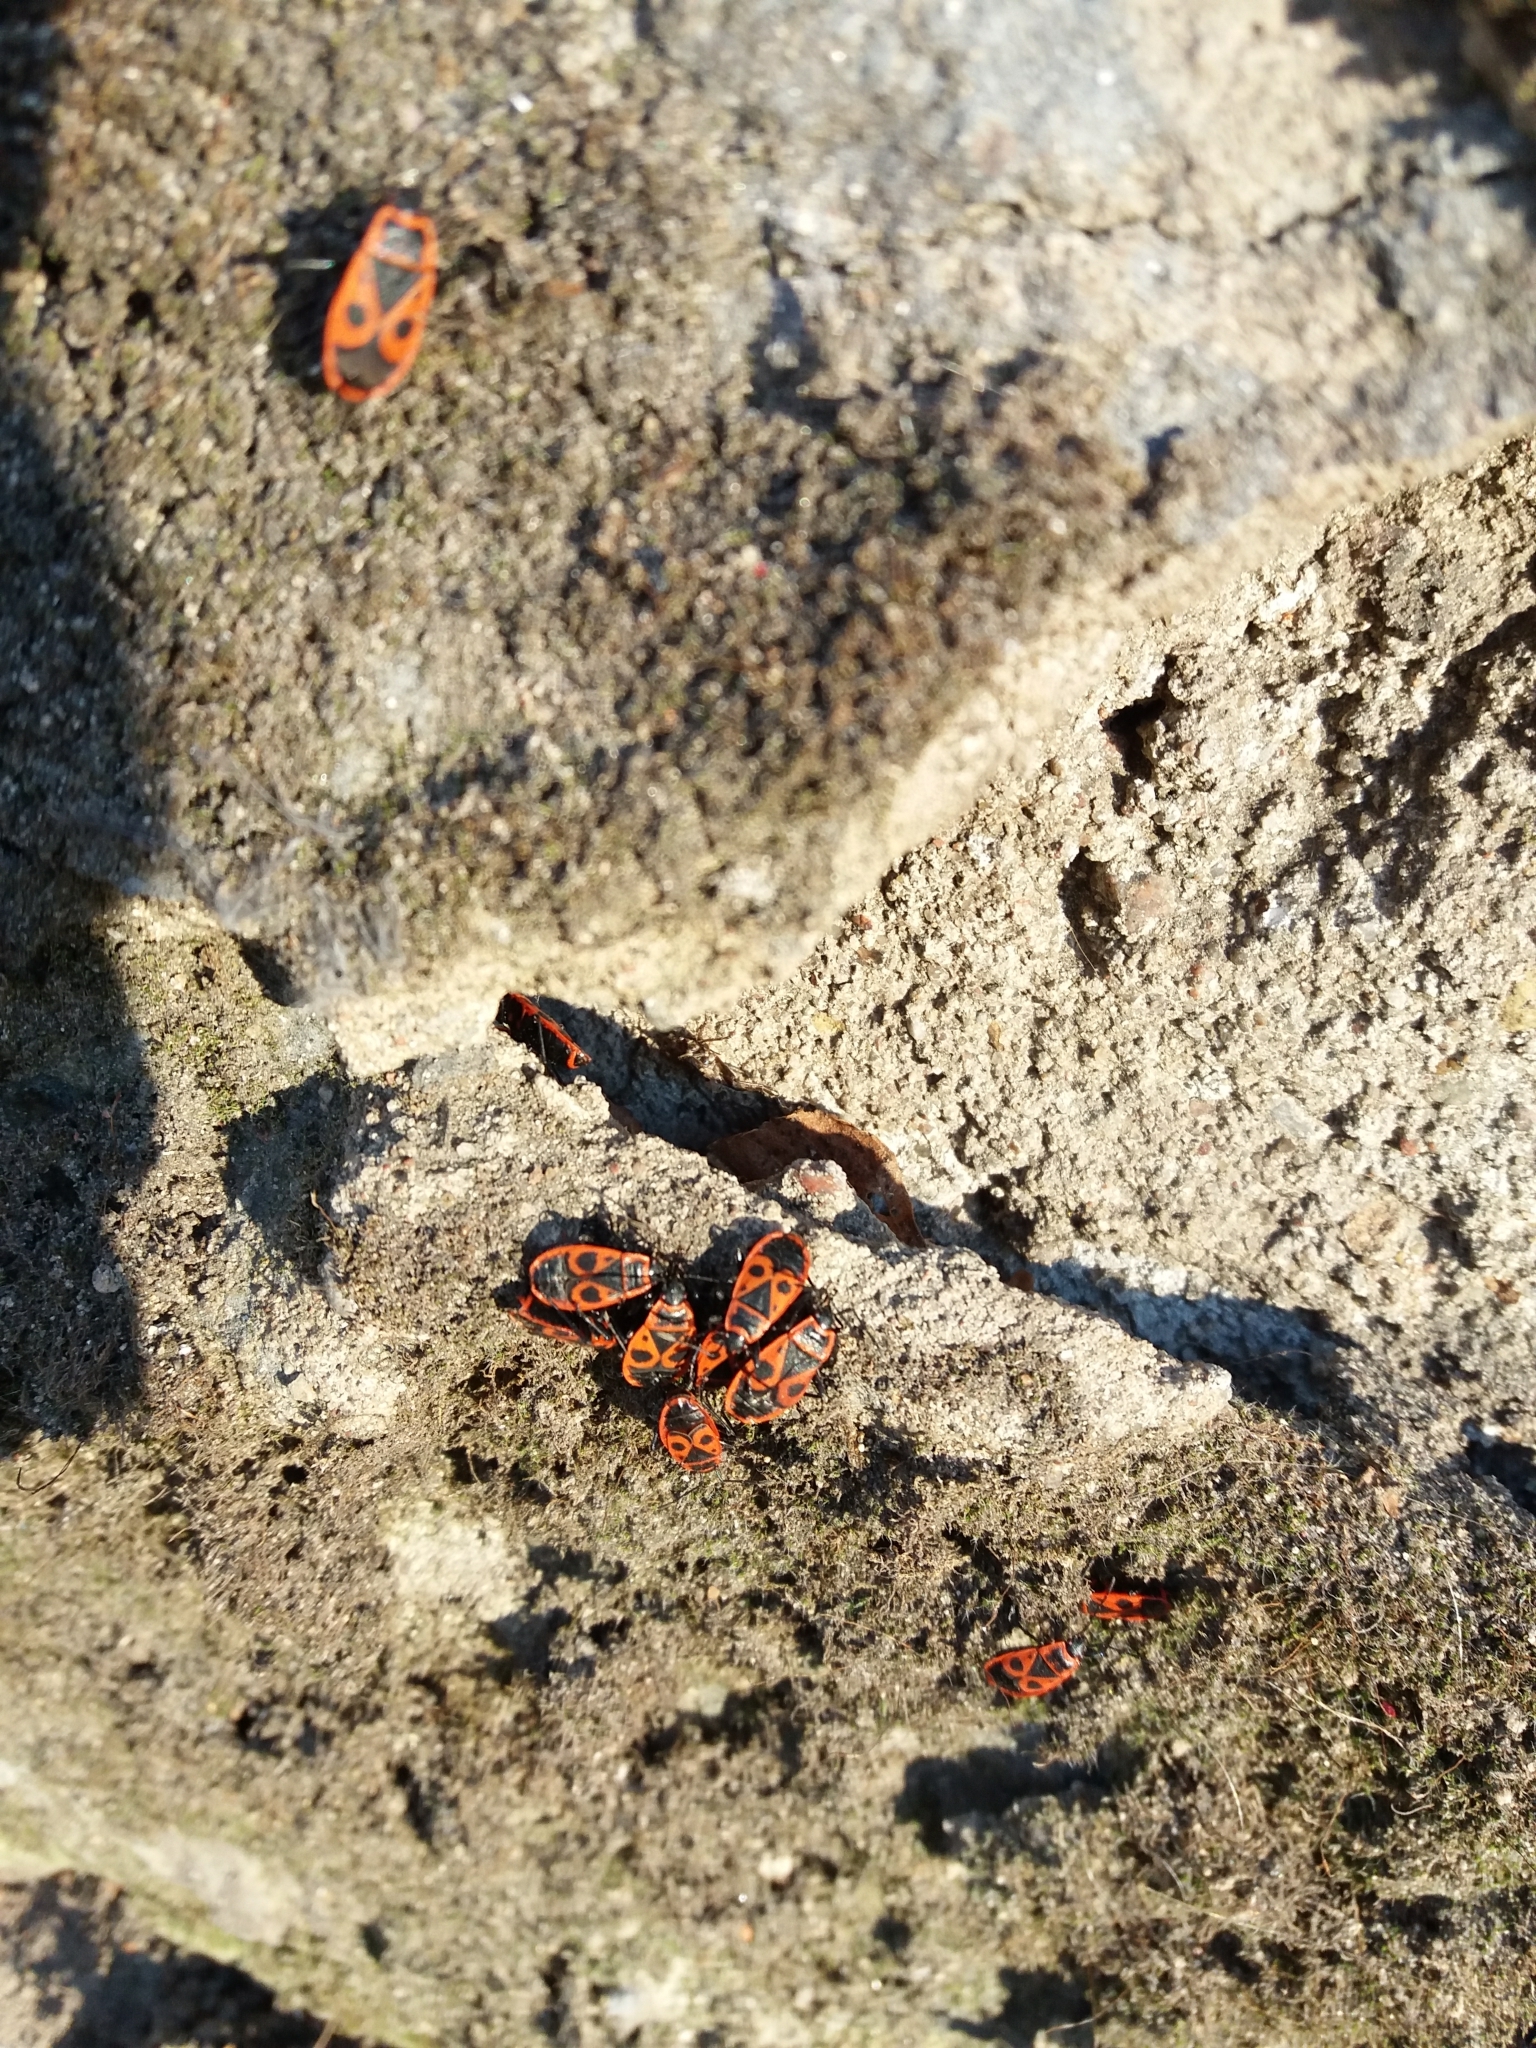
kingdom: Animalia
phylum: Arthropoda
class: Insecta
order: Hemiptera
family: Pyrrhocoridae
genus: Pyrrhocoris
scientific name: Pyrrhocoris apterus
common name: Firebug
